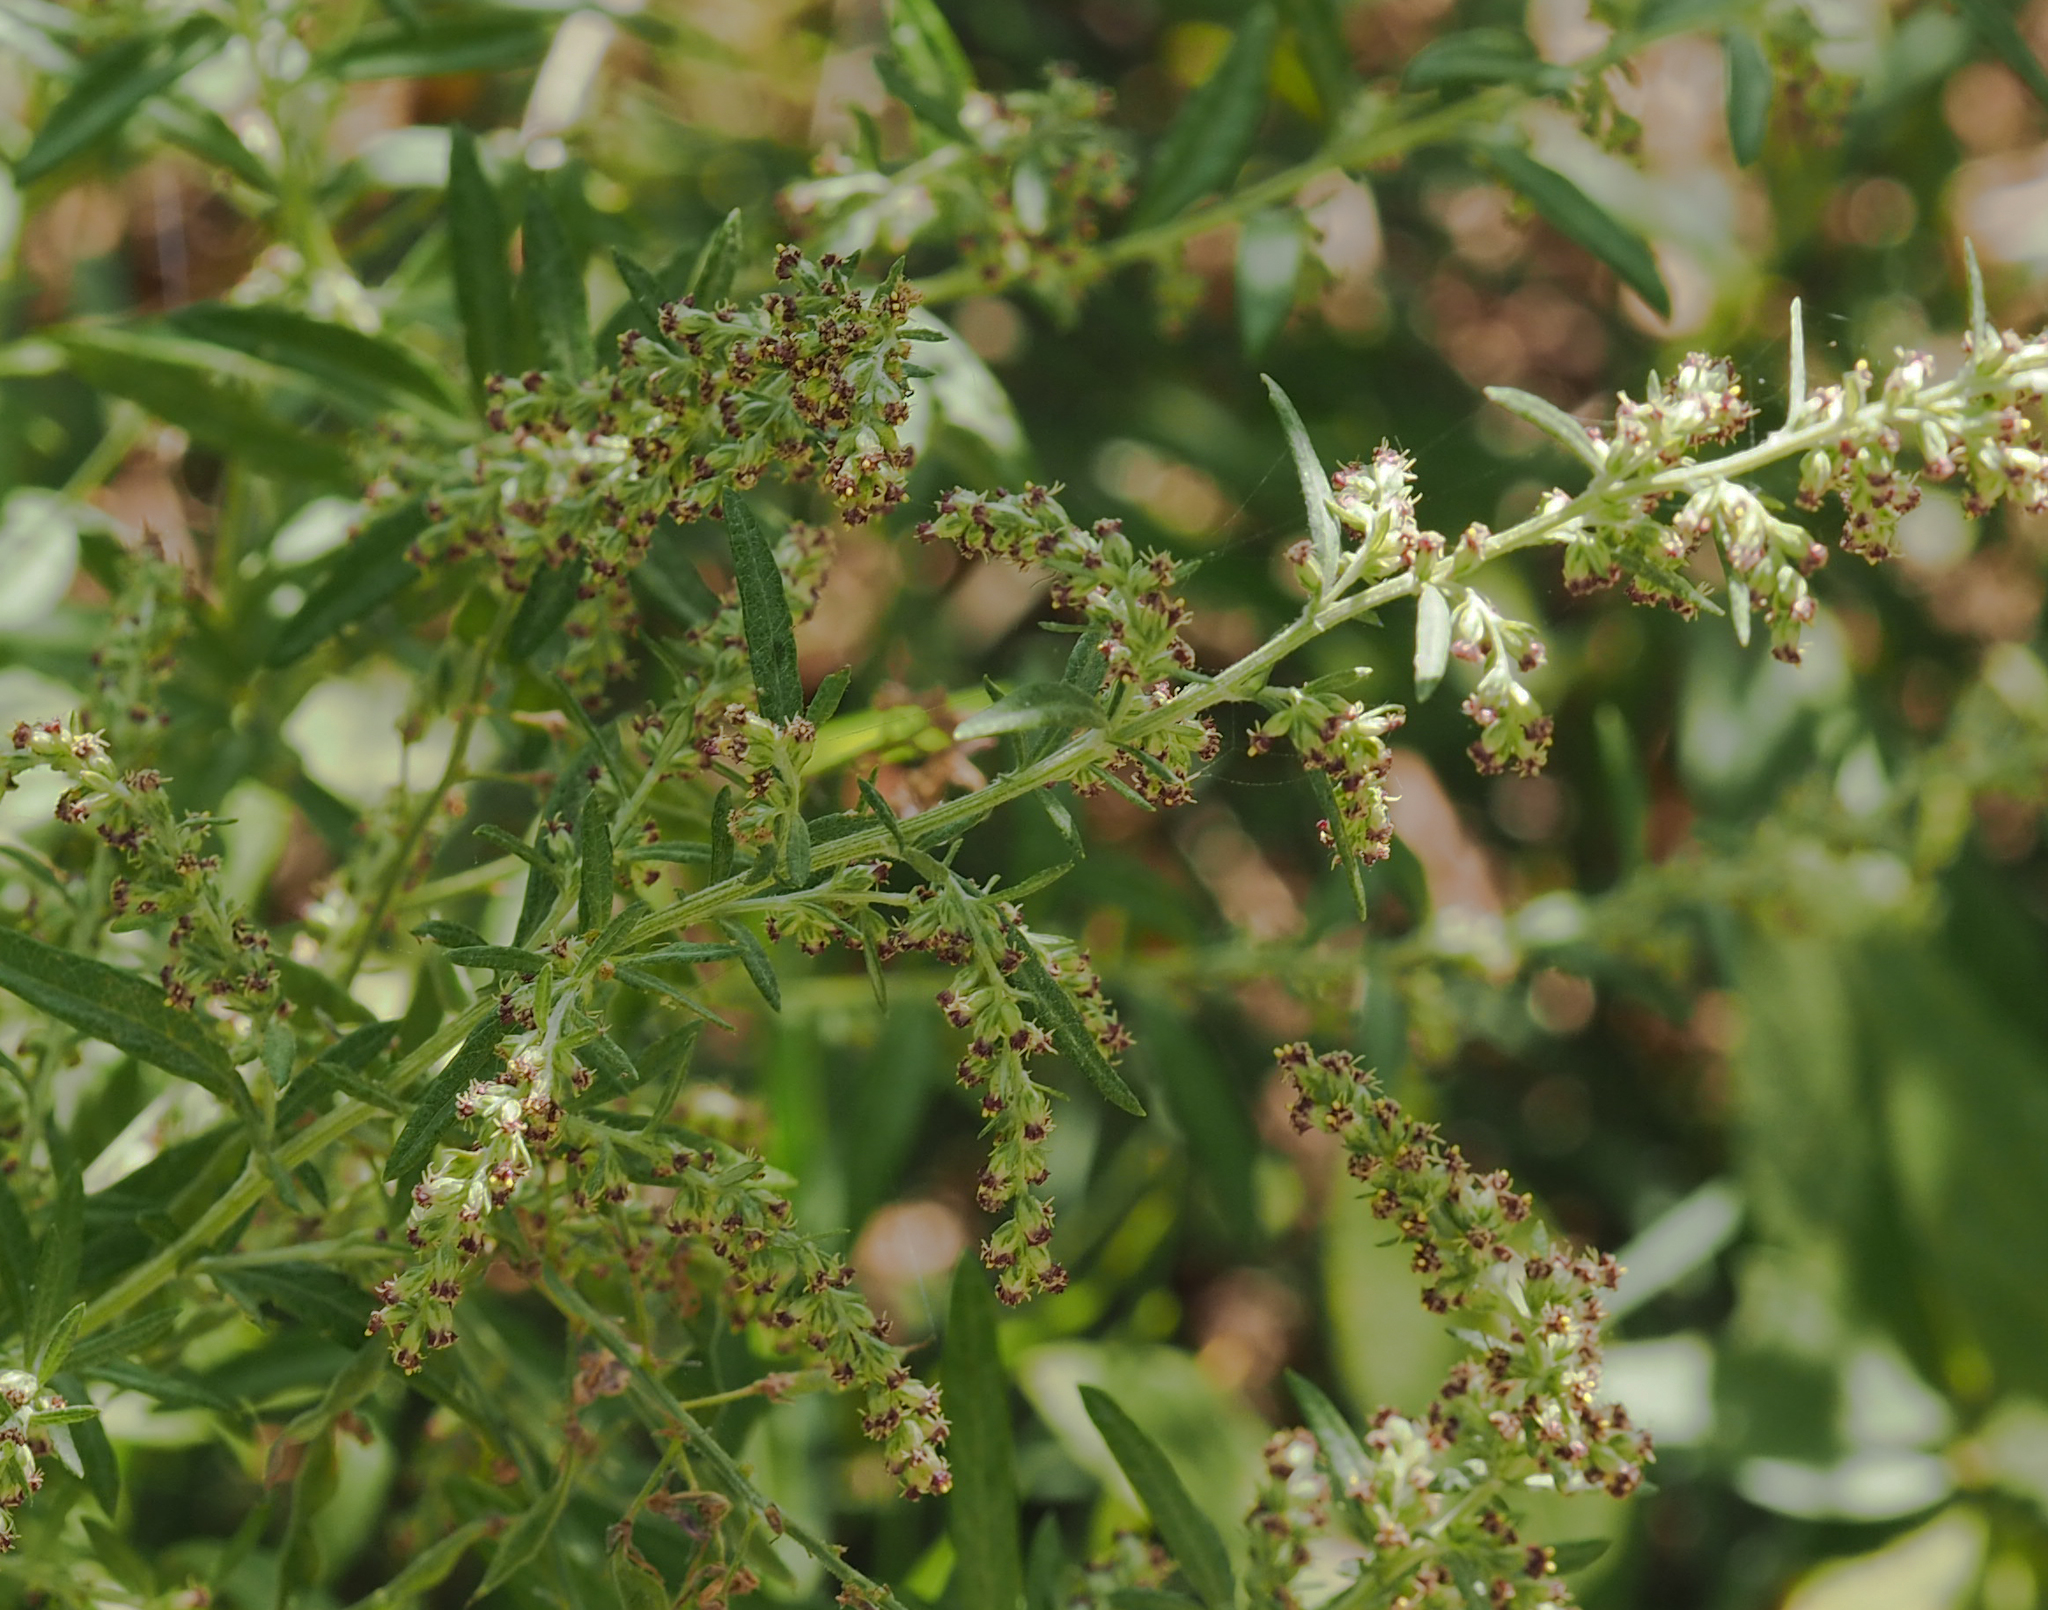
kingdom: Plantae
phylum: Tracheophyta
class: Magnoliopsida
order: Asterales
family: Asteraceae
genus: Artemisia
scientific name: Artemisia vulgaris
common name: Mugwort
